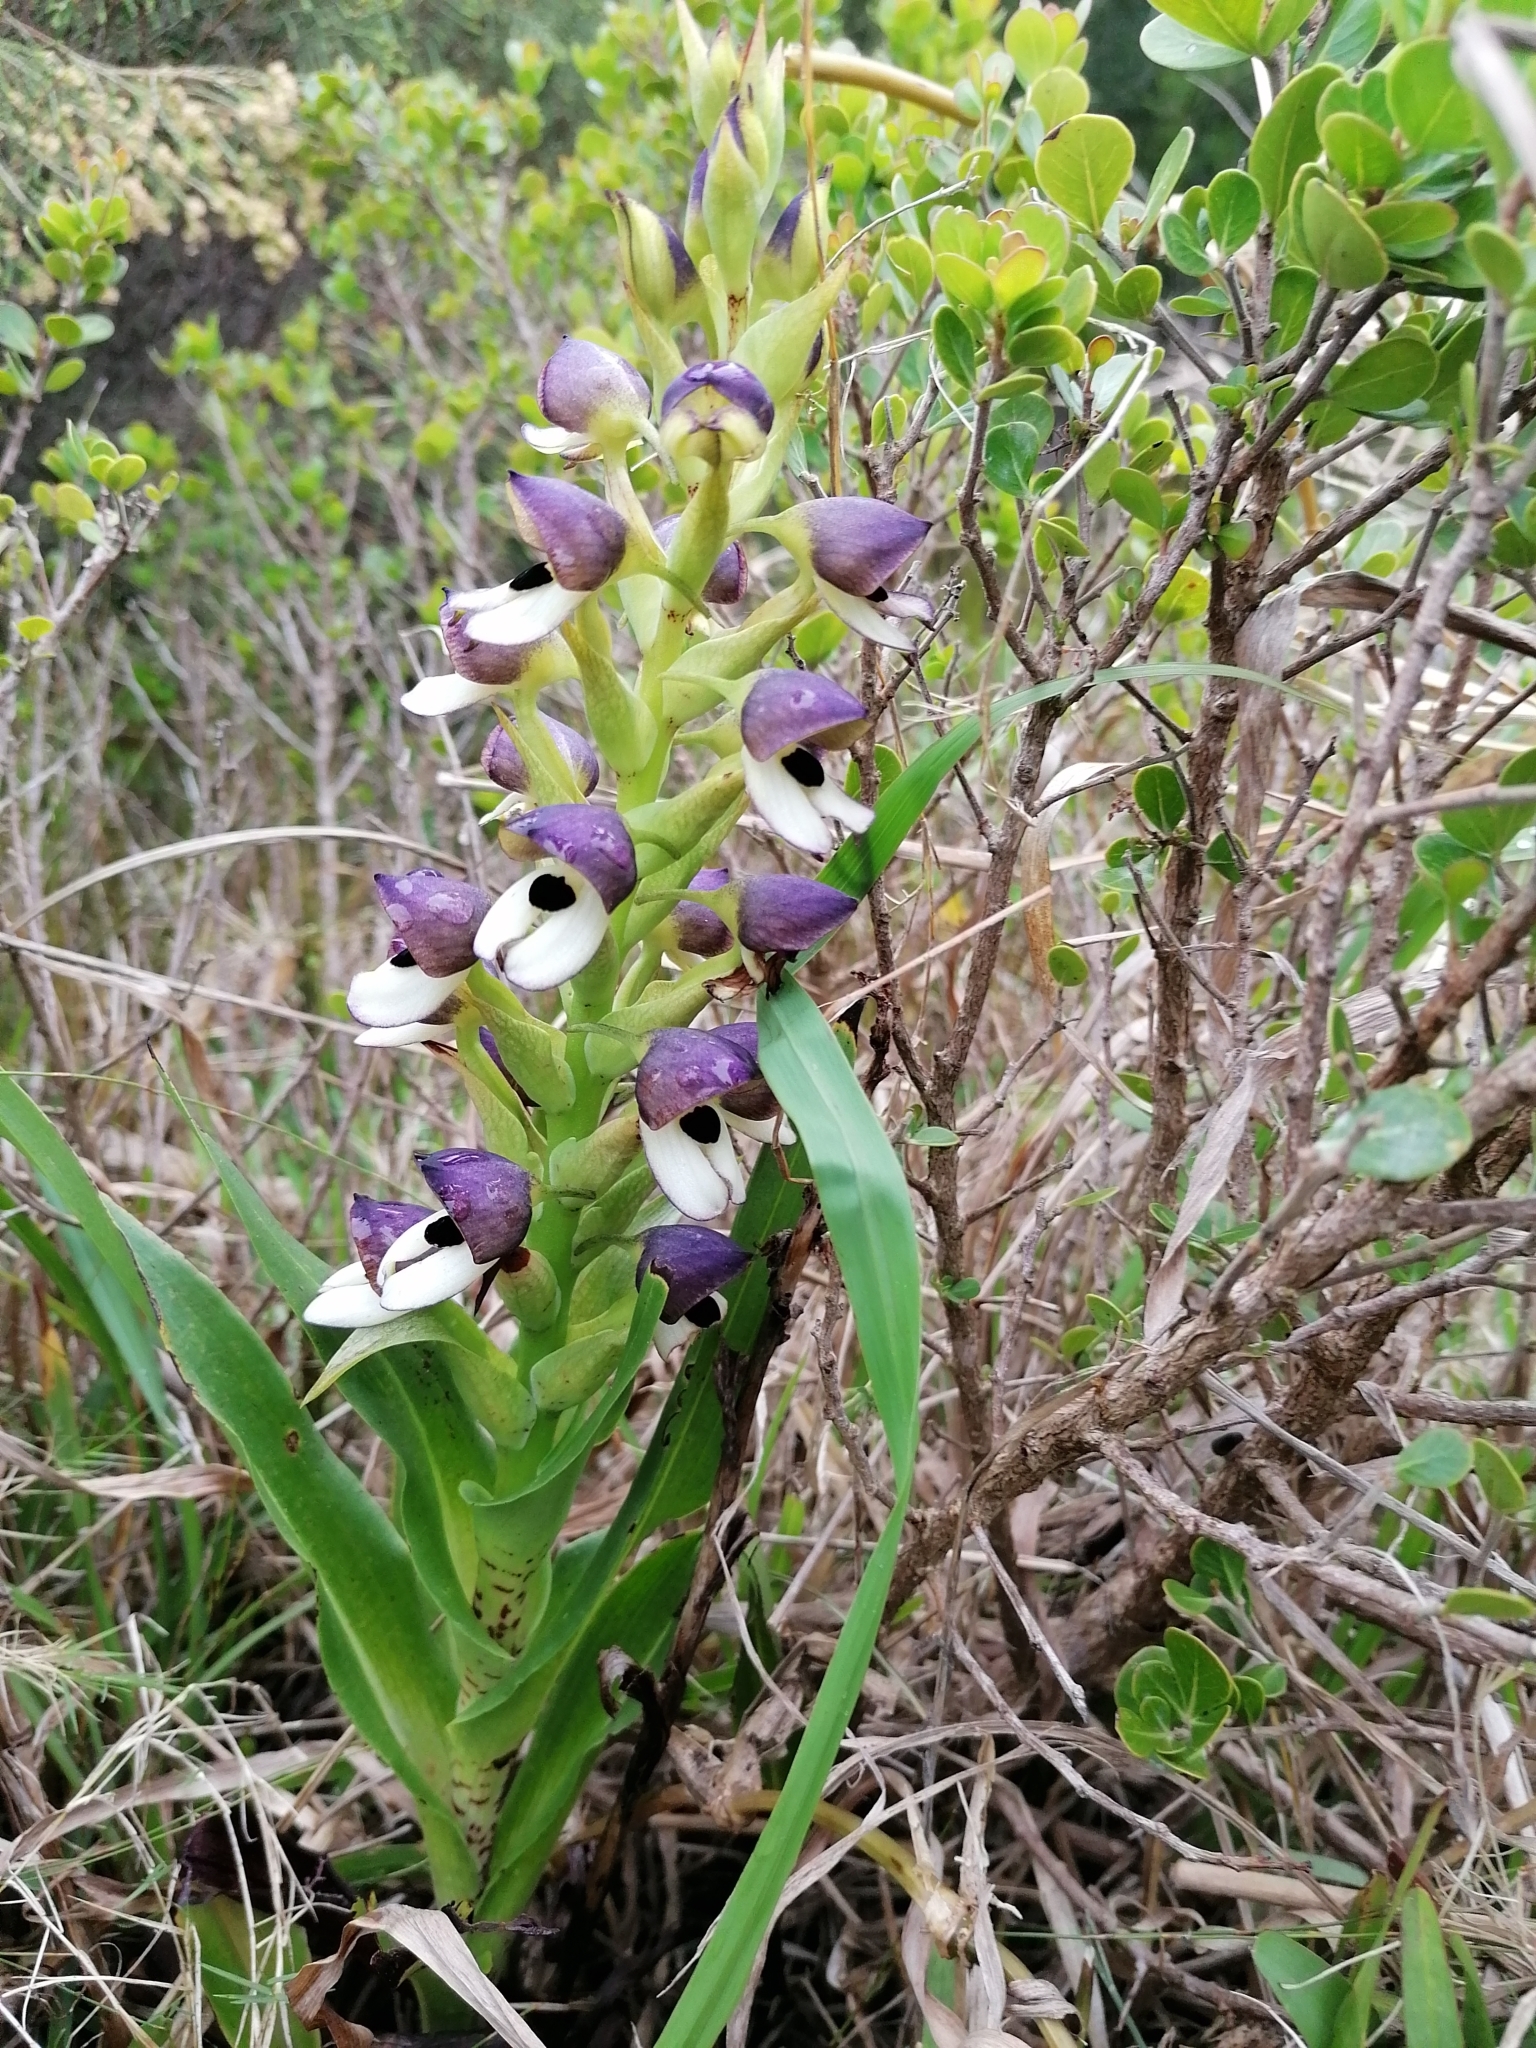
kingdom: Plantae
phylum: Tracheophyta
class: Liliopsida
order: Asparagales
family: Orchidaceae
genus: Disa
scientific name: Disa cornuta
